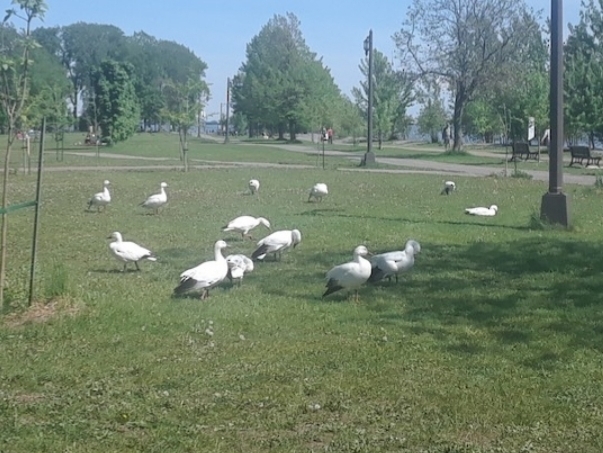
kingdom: Animalia
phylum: Chordata
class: Aves
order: Anseriformes
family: Anatidae
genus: Anser
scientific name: Anser caerulescens
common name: Snow goose
